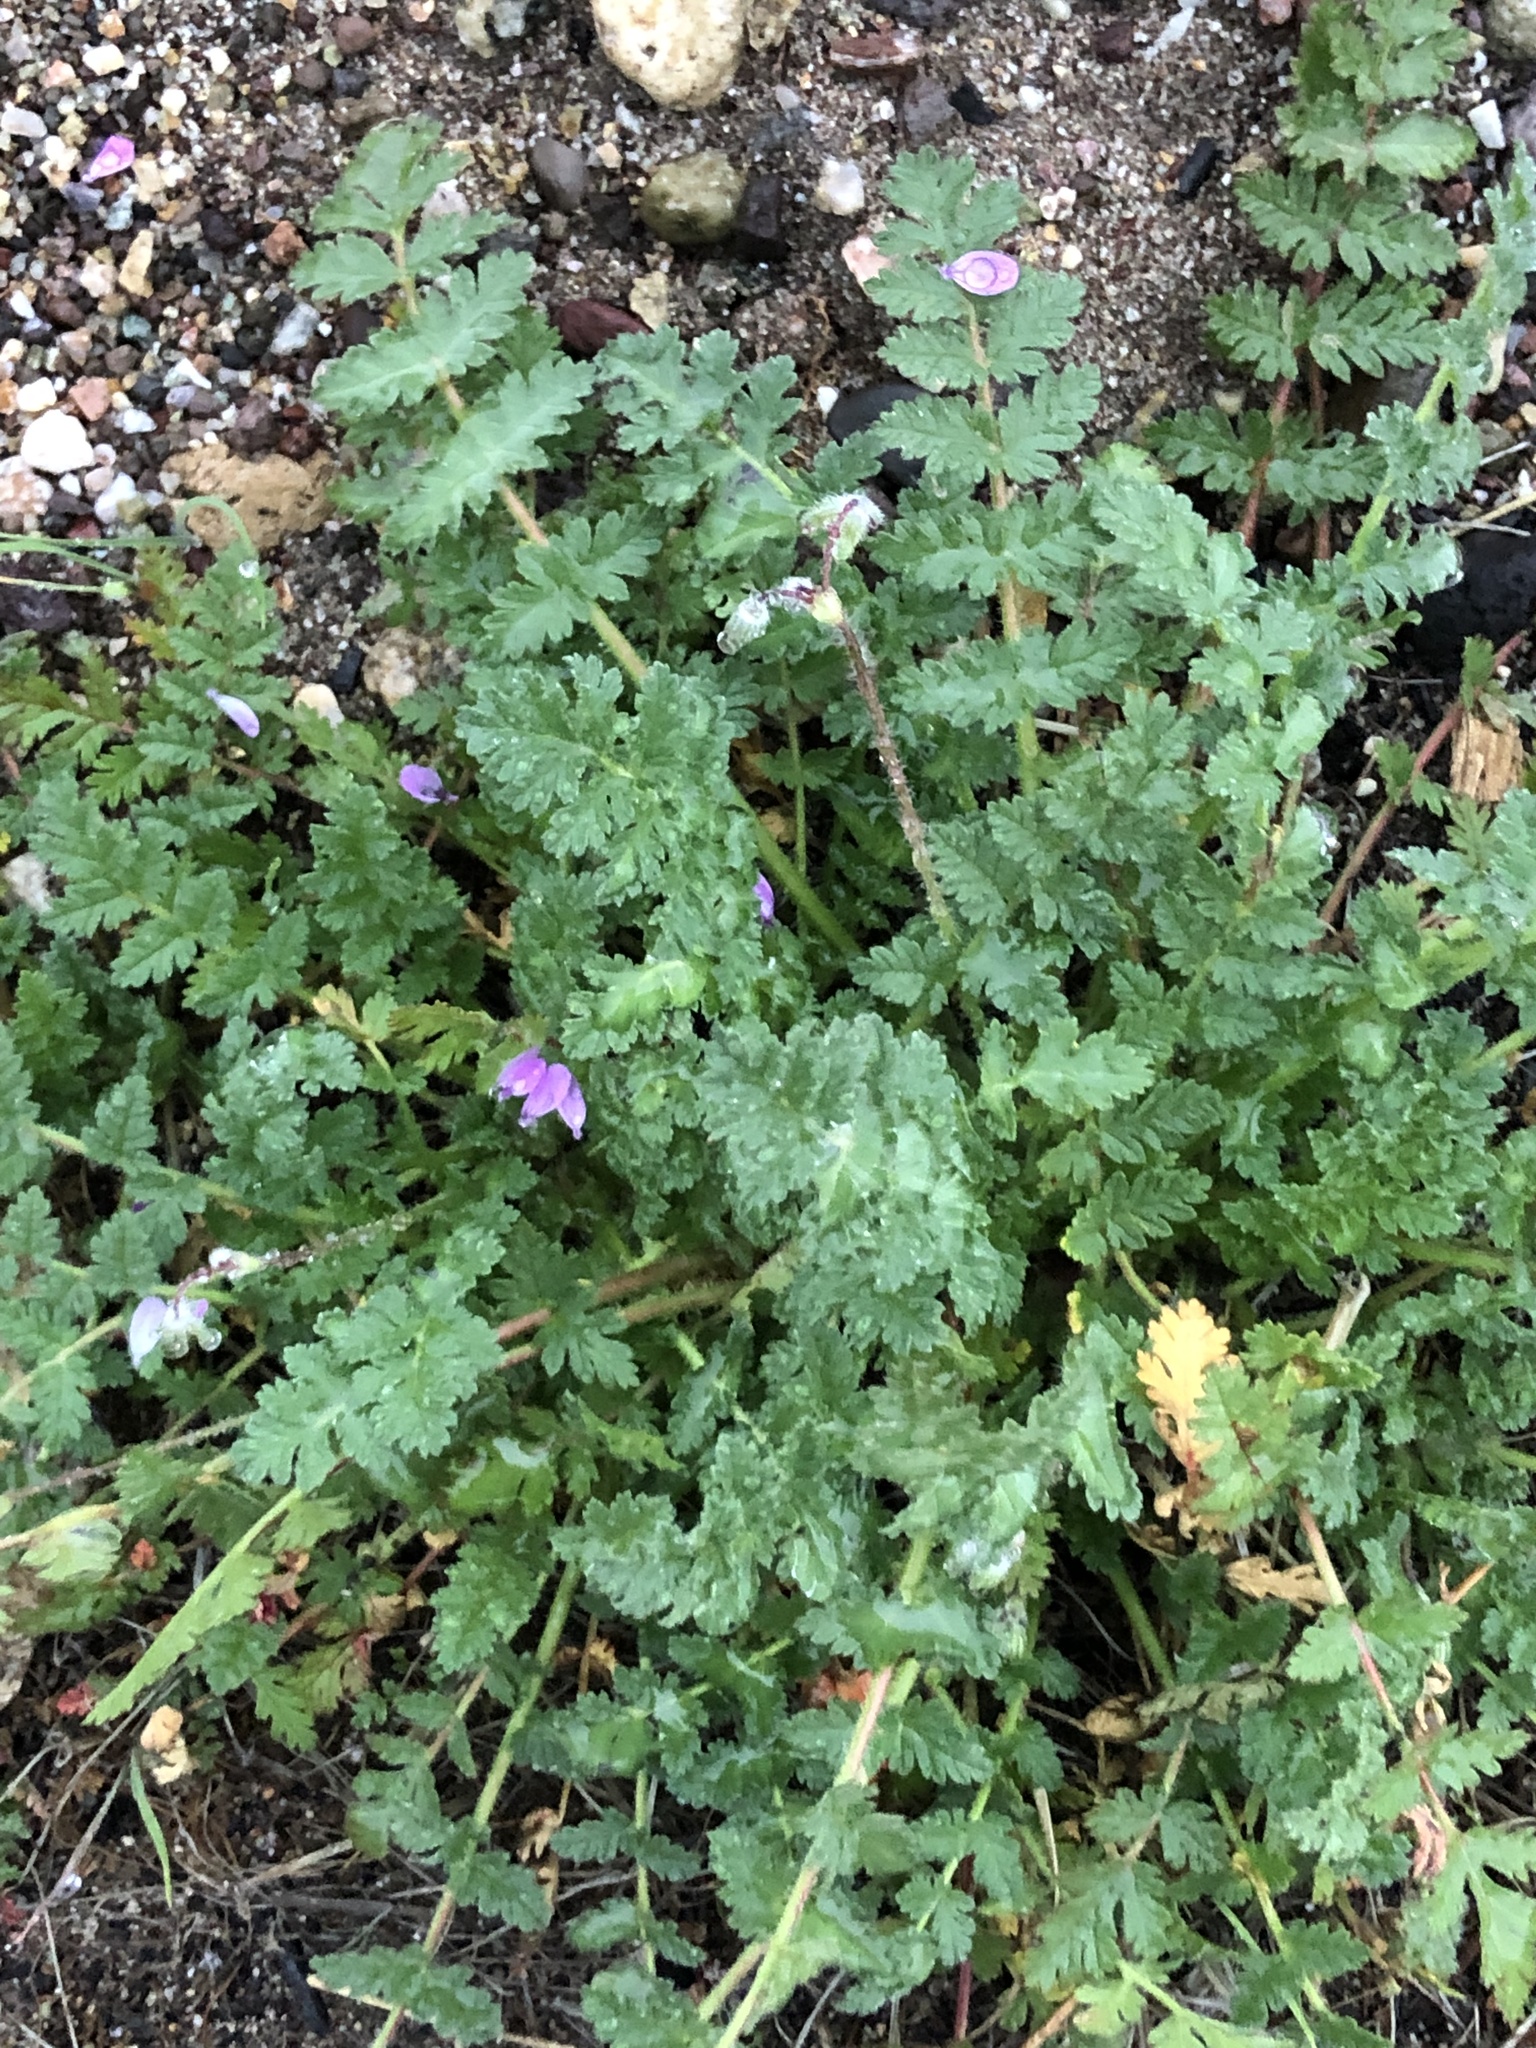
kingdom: Plantae
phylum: Tracheophyta
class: Magnoliopsida
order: Geraniales
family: Geraniaceae
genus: Erodium
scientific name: Erodium cicutarium
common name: Common stork's-bill
